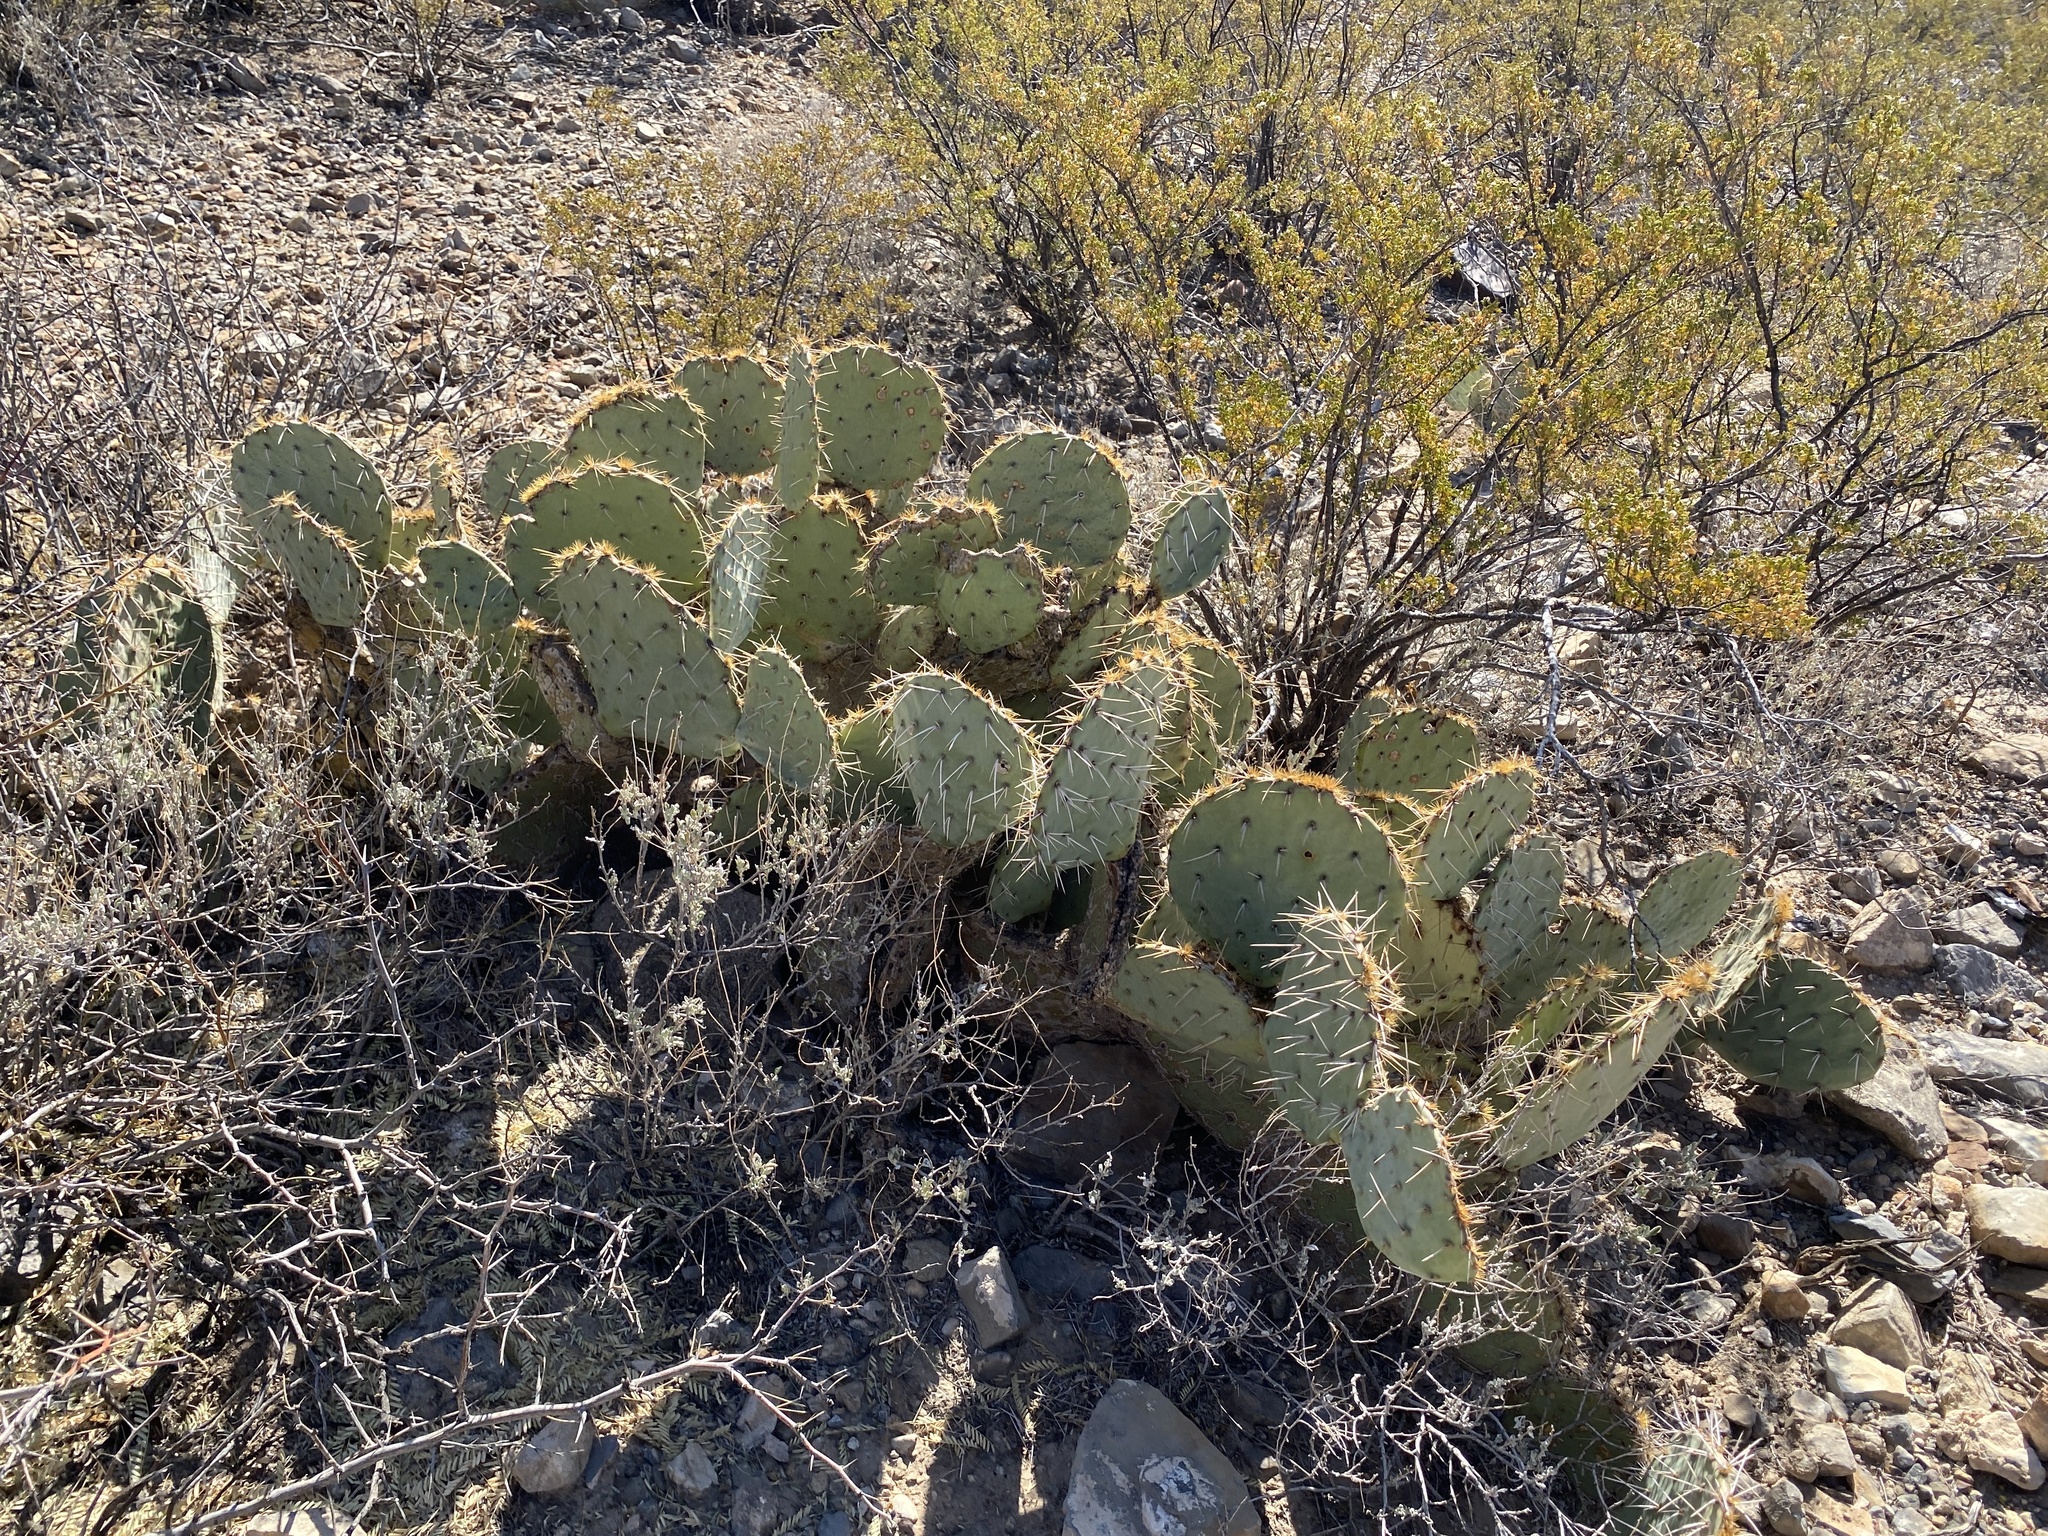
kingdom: Plantae
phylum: Tracheophyta
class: Magnoliopsida
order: Caryophyllales
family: Cactaceae
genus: Opuntia
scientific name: Opuntia engelmannii
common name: Cactus-apple
